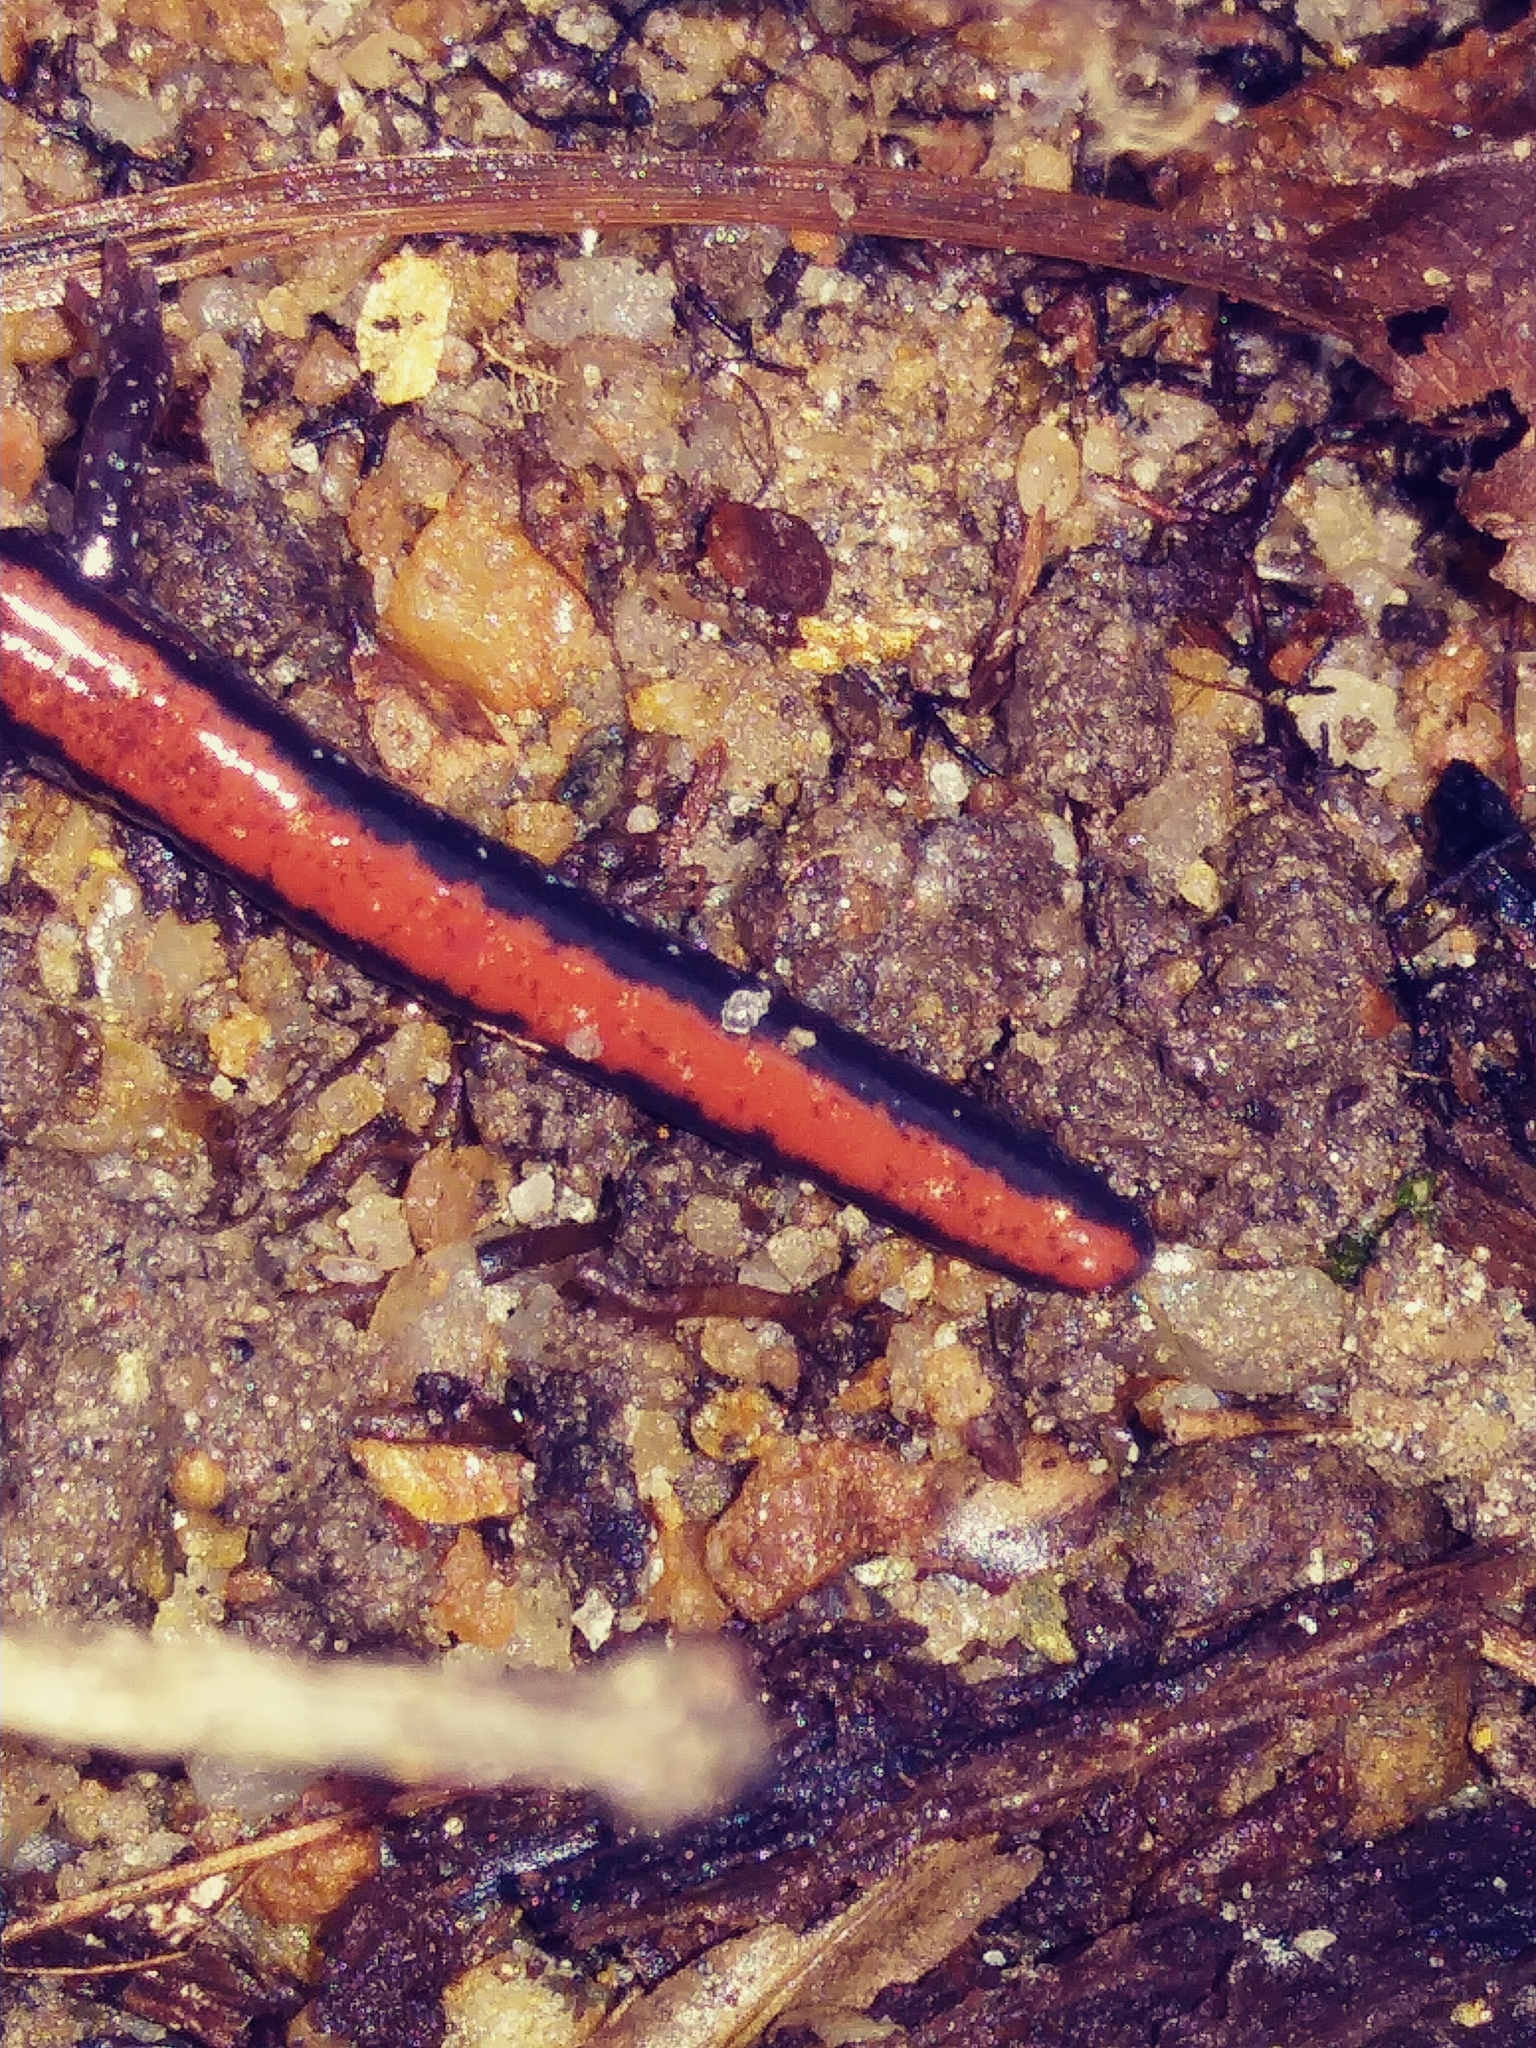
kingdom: Animalia
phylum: Chordata
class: Amphibia
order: Caudata
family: Plethodontidae
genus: Plethodon
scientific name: Plethodon cinereus
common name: Redback salamander
